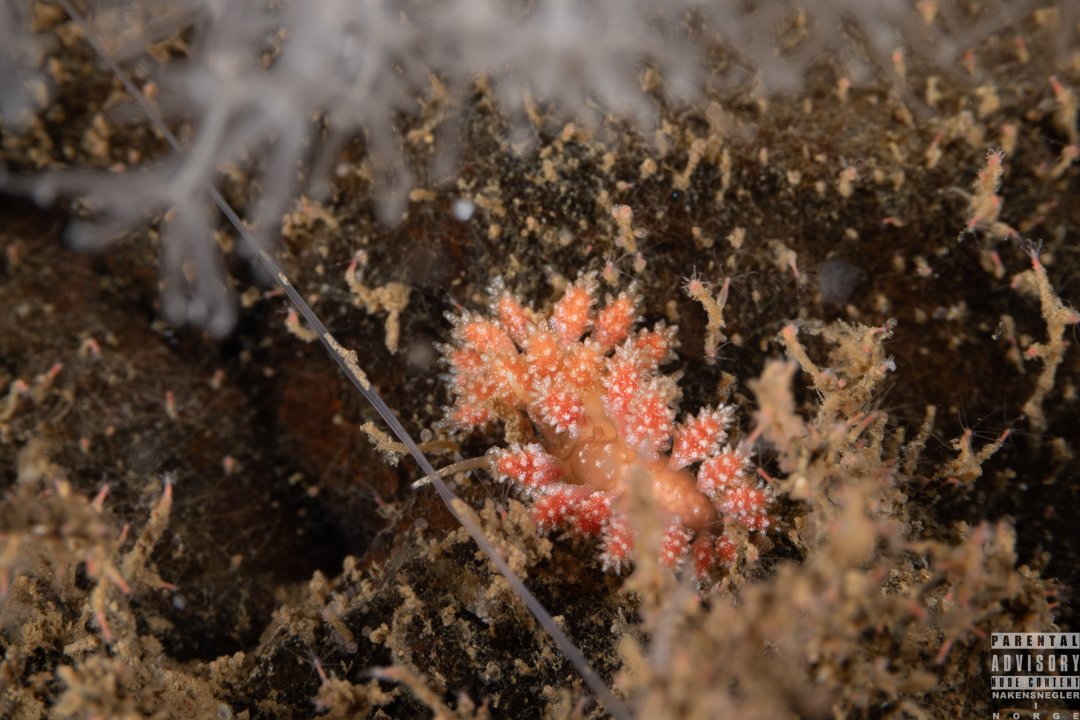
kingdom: Animalia
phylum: Mollusca
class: Gastropoda
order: Nudibranchia
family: Dotidae
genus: Doto
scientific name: Doto fragilis
